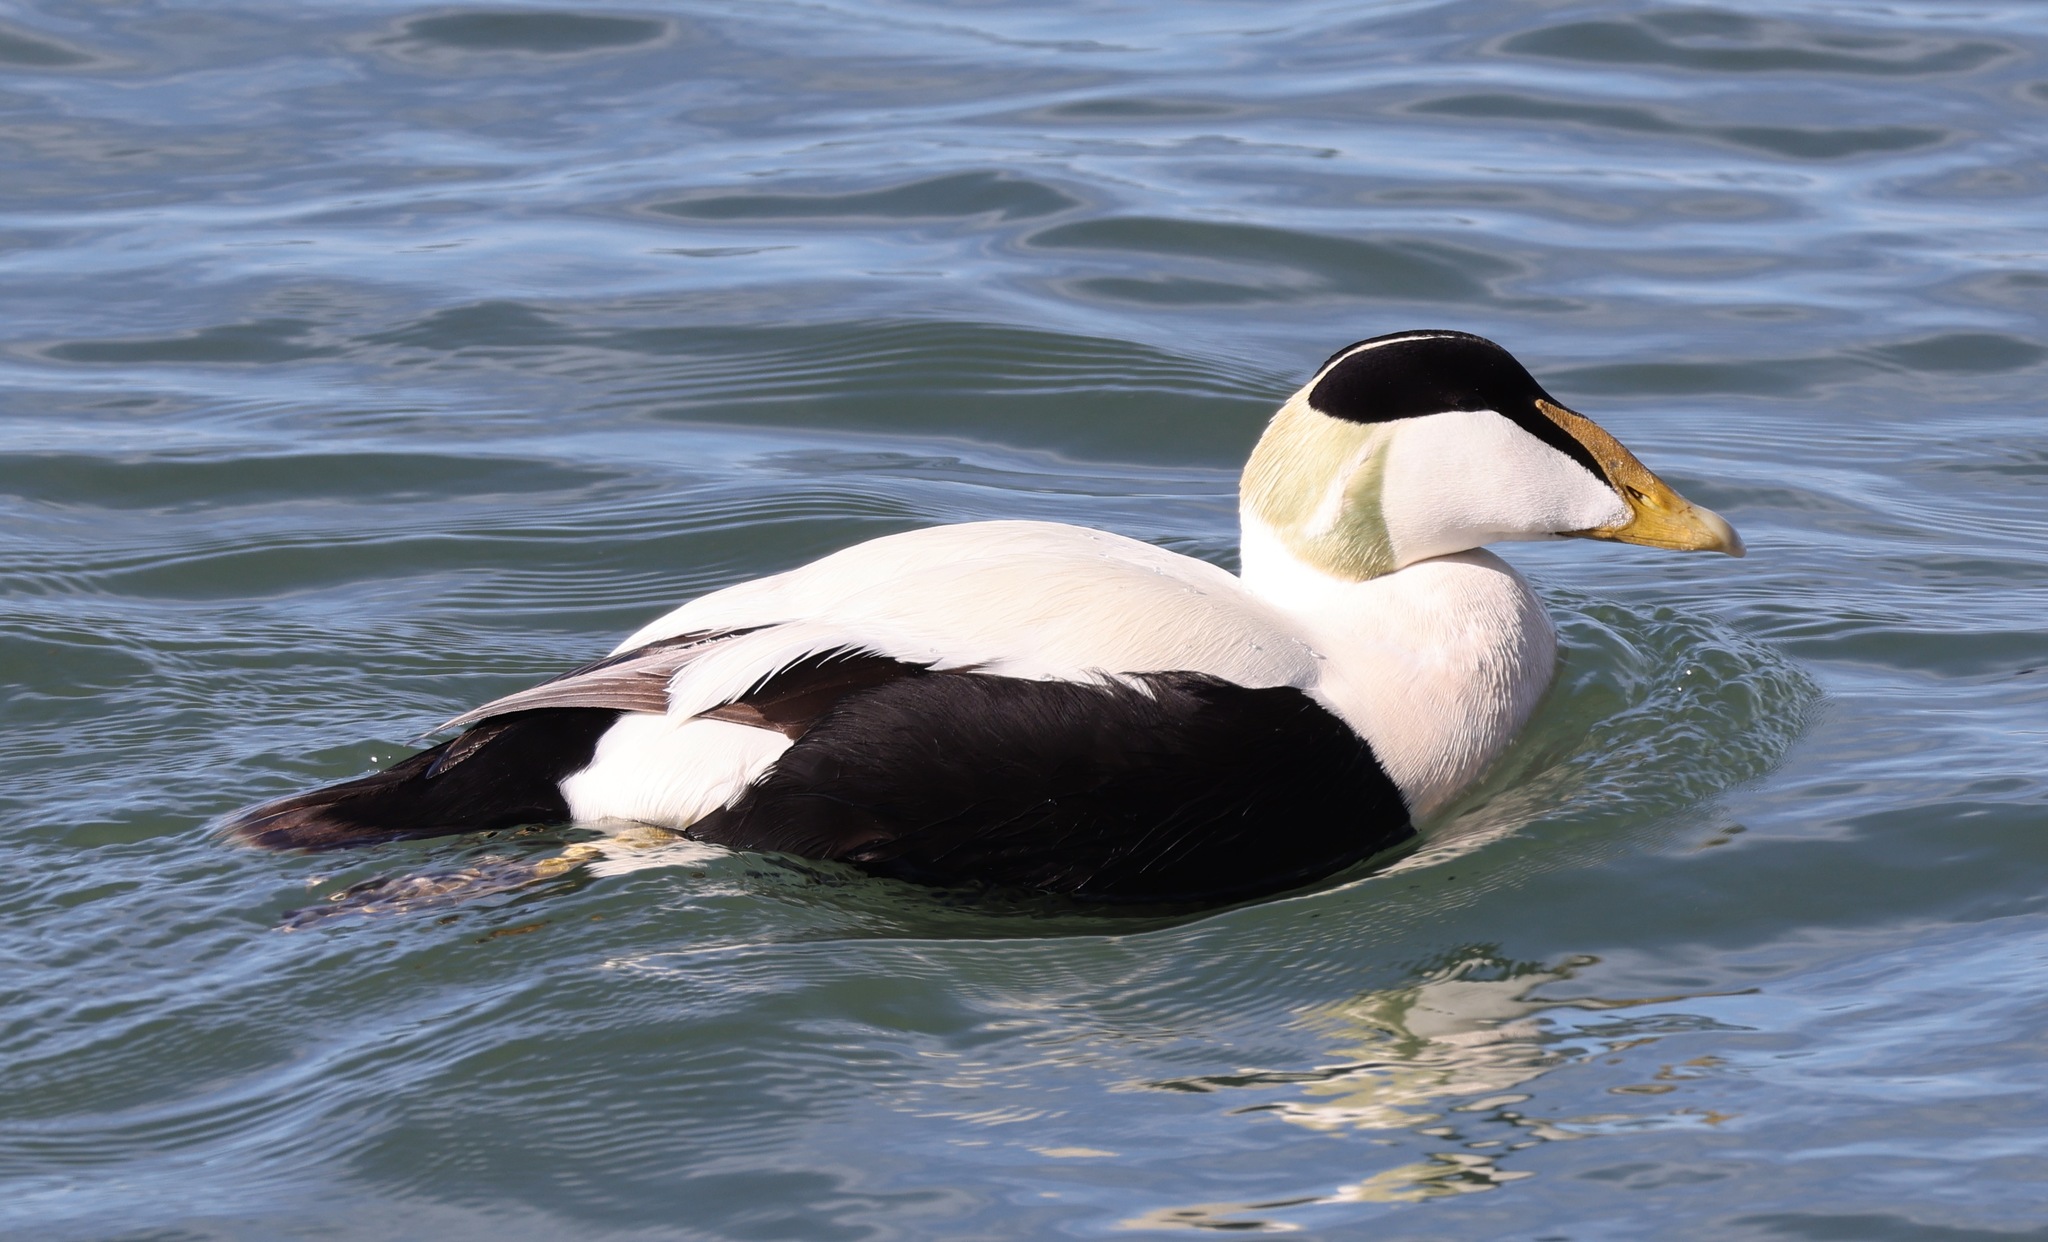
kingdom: Animalia
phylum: Chordata
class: Aves
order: Anseriformes
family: Anatidae
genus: Somateria
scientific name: Somateria mollissima
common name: Common eider
